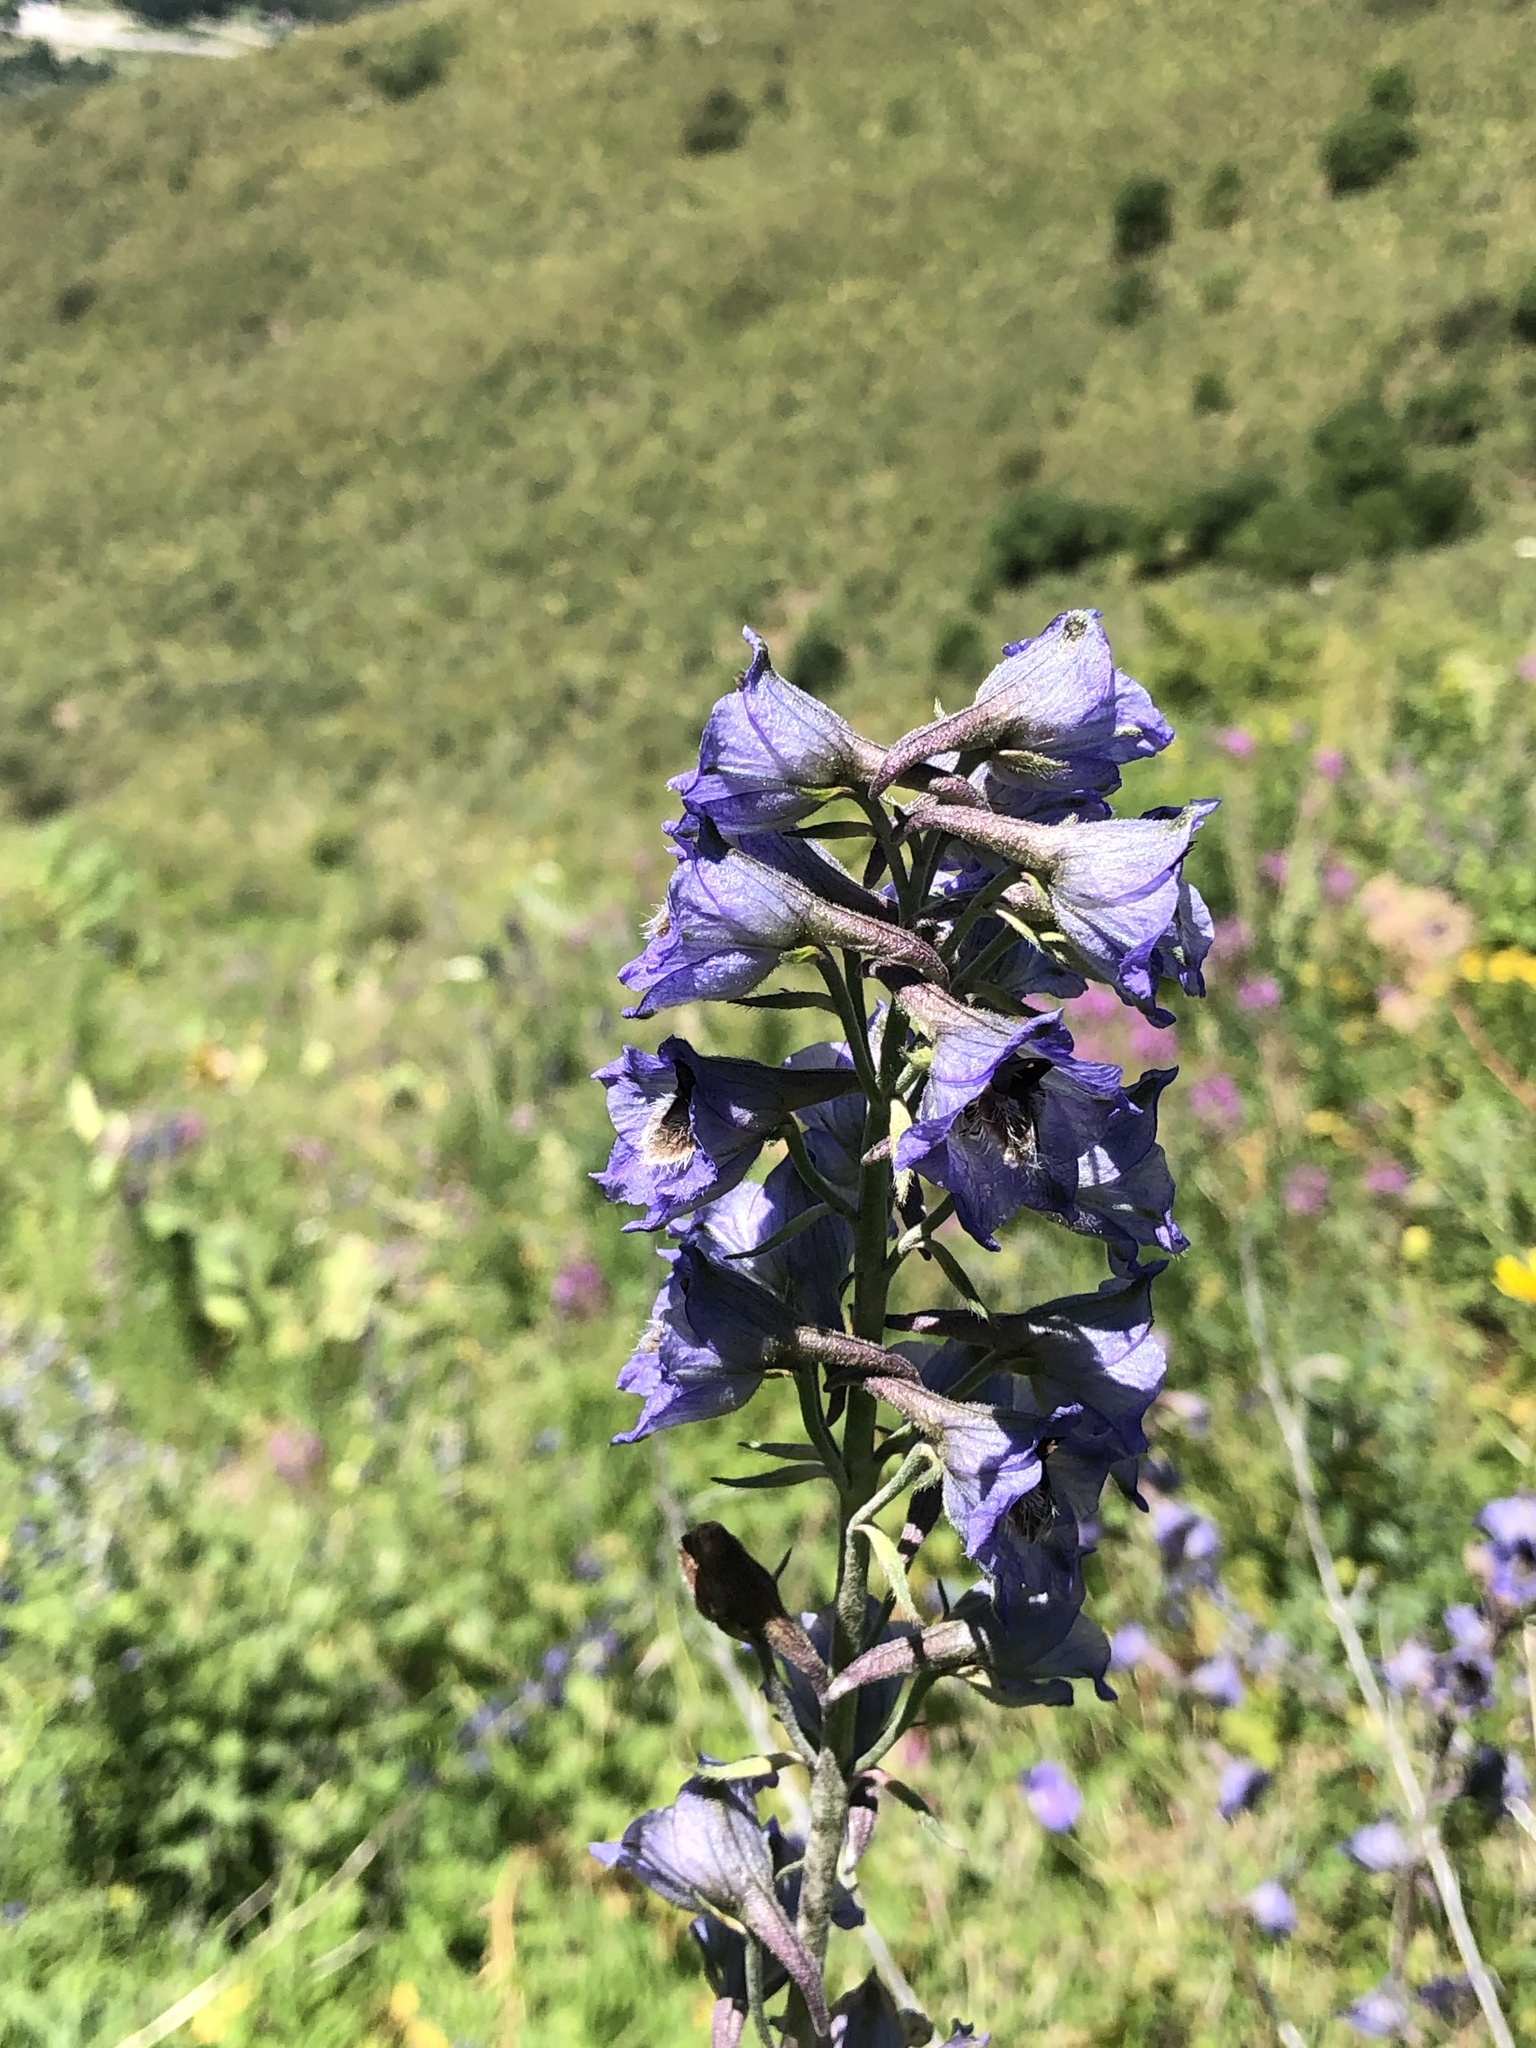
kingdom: Plantae
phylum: Tracheophyta
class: Magnoliopsida
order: Ranunculales
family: Ranunculaceae
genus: Delphinium
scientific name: Delphinium iliense
